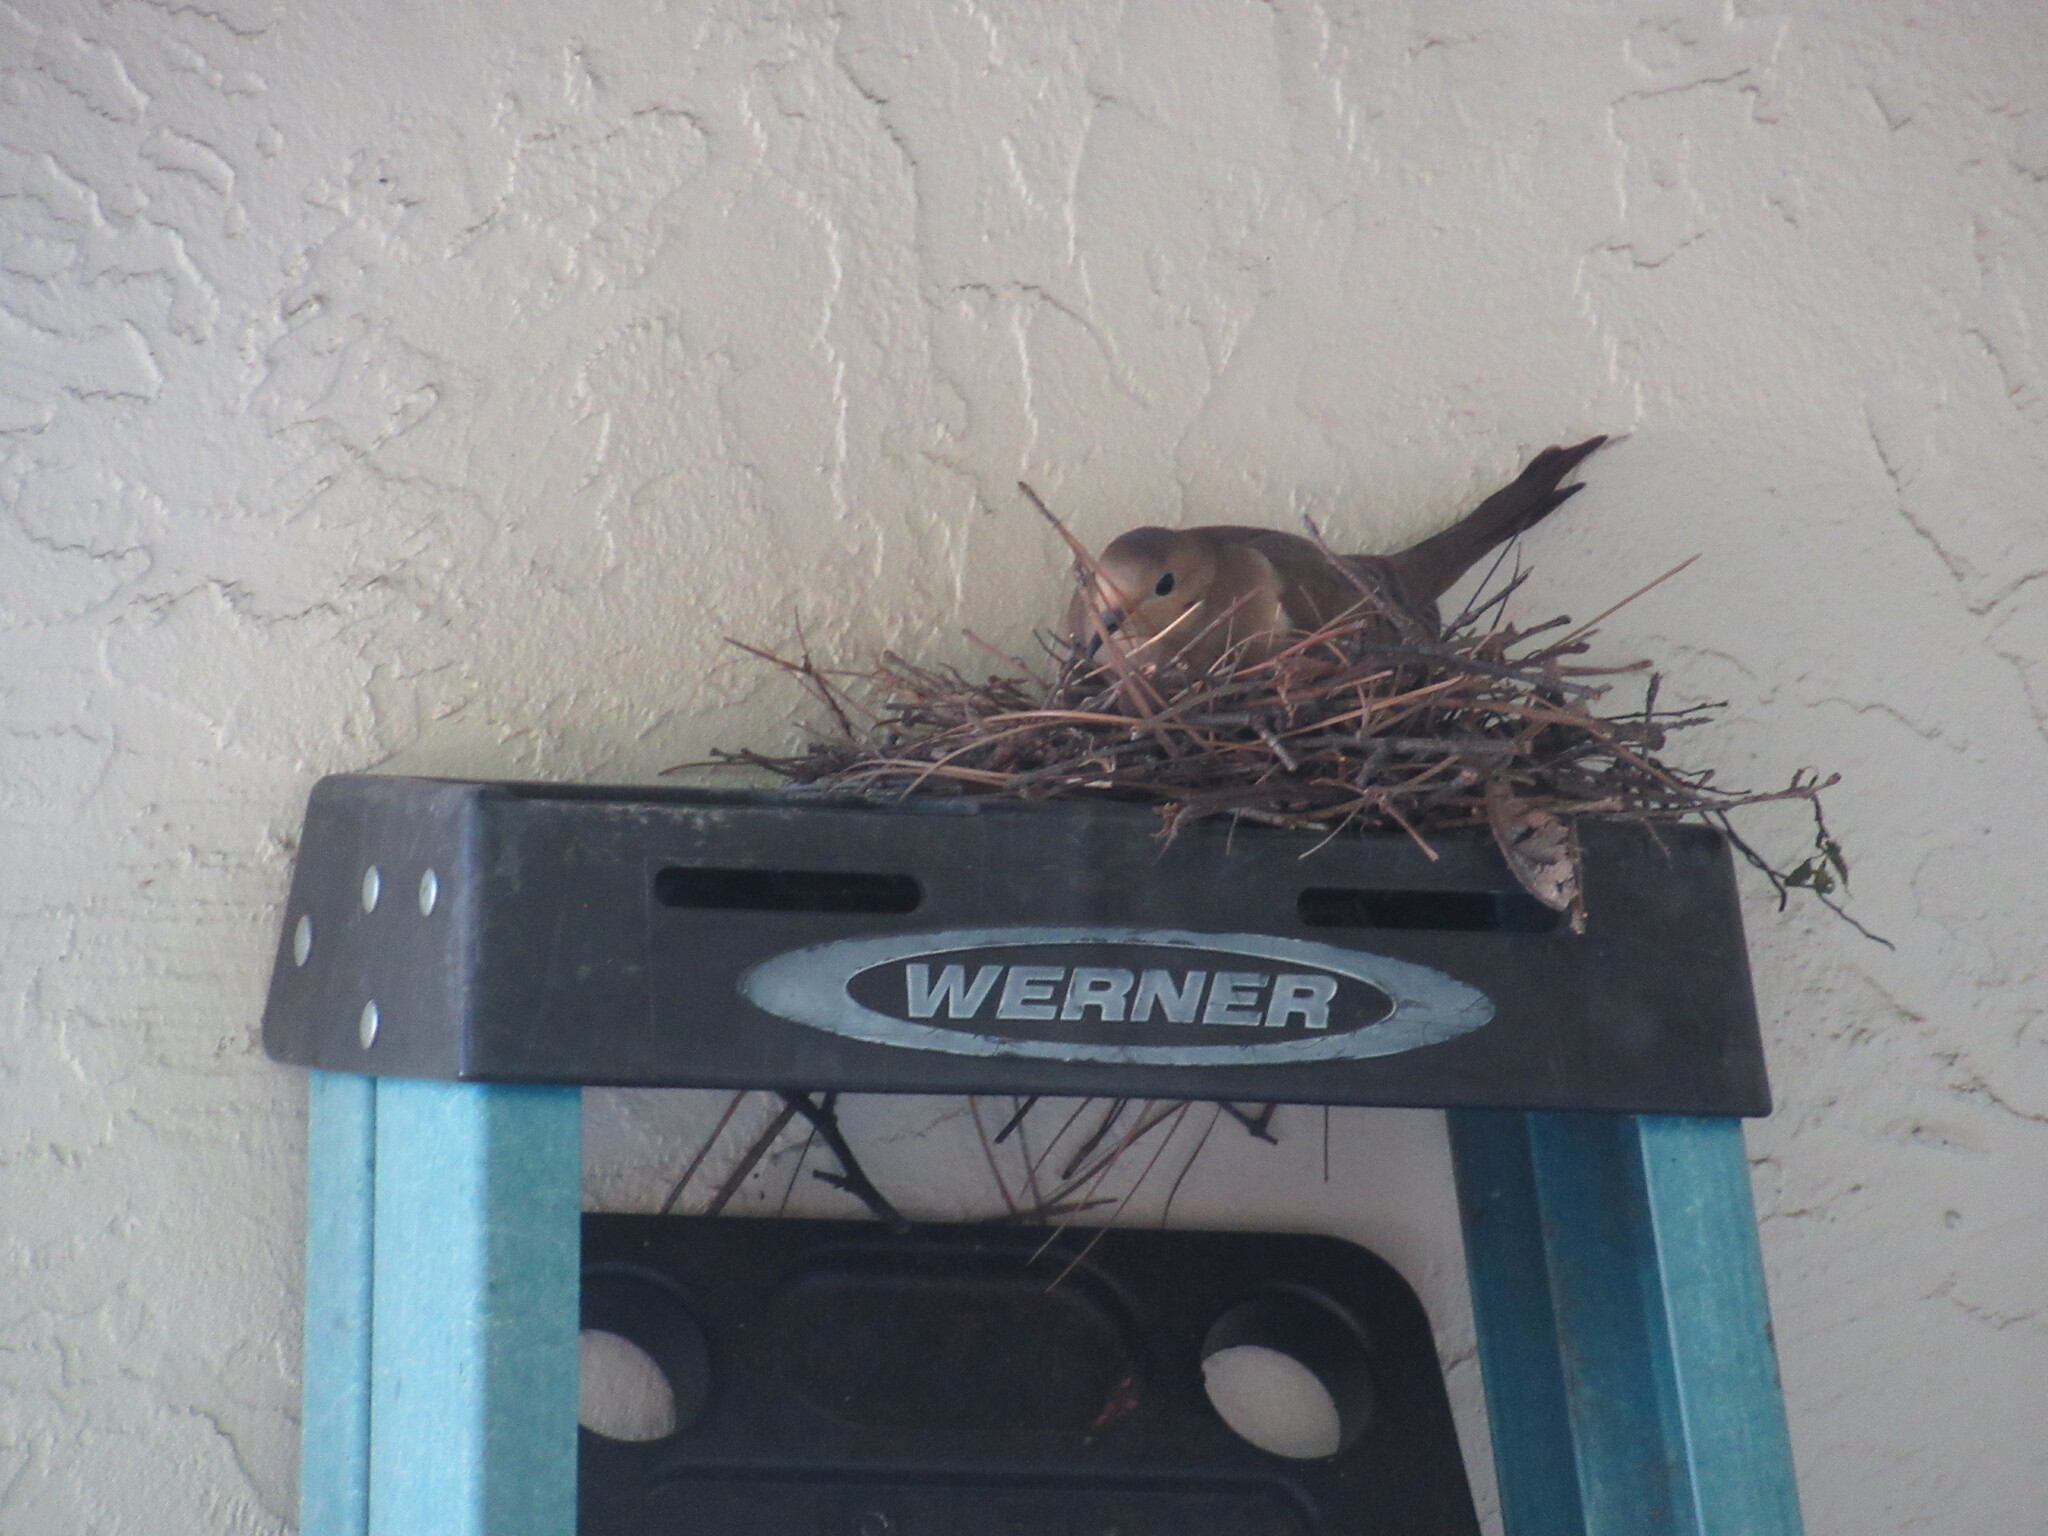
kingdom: Animalia
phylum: Chordata
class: Aves
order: Columbiformes
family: Columbidae
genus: Zenaida
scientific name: Zenaida macroura
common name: Mourning dove
